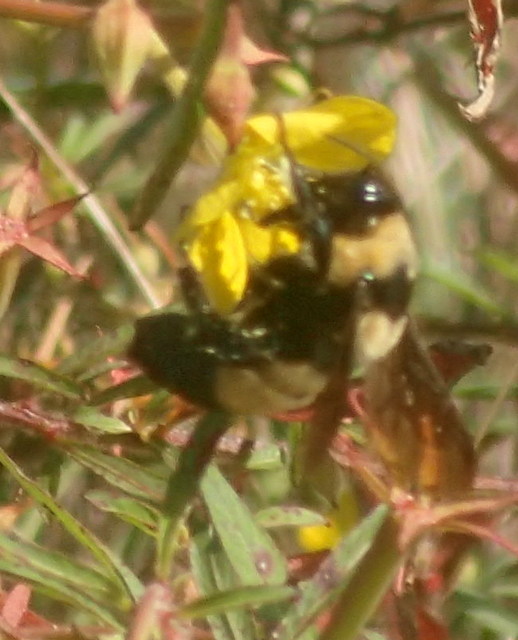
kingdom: Animalia
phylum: Arthropoda
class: Insecta
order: Hymenoptera
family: Apidae
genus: Bombus
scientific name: Bombus fraternus
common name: Southern plains bumble bee
